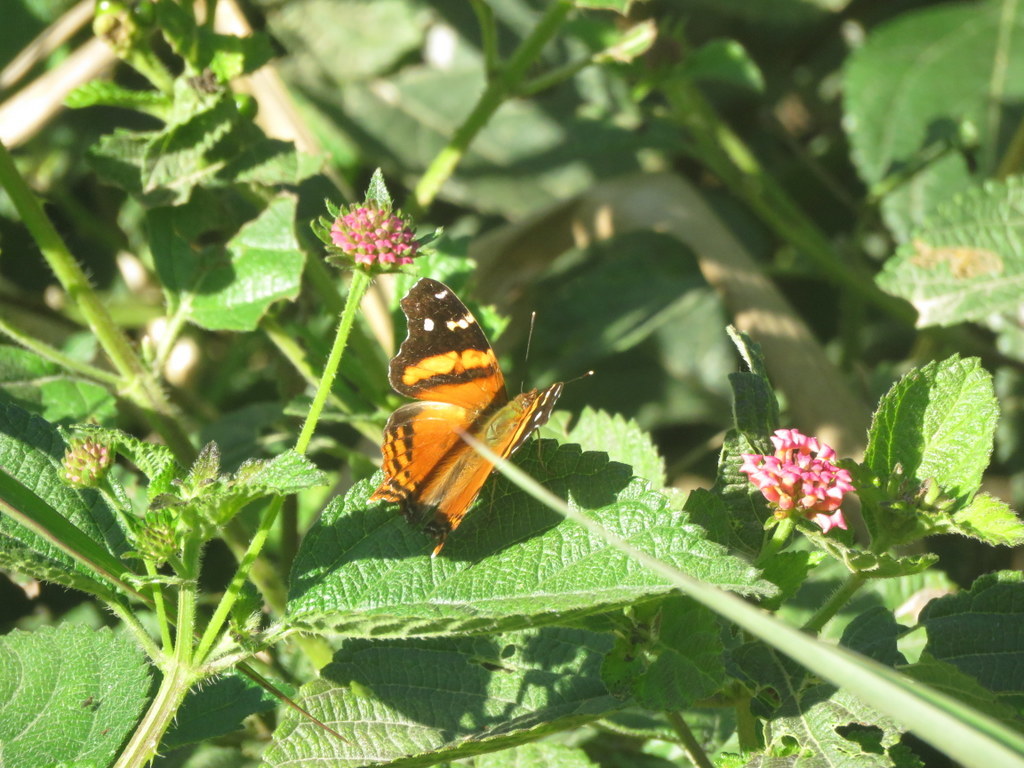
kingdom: Animalia
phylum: Arthropoda
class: Insecta
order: Lepidoptera
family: Nymphalidae
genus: Hypanartia
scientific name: Hypanartia bella
